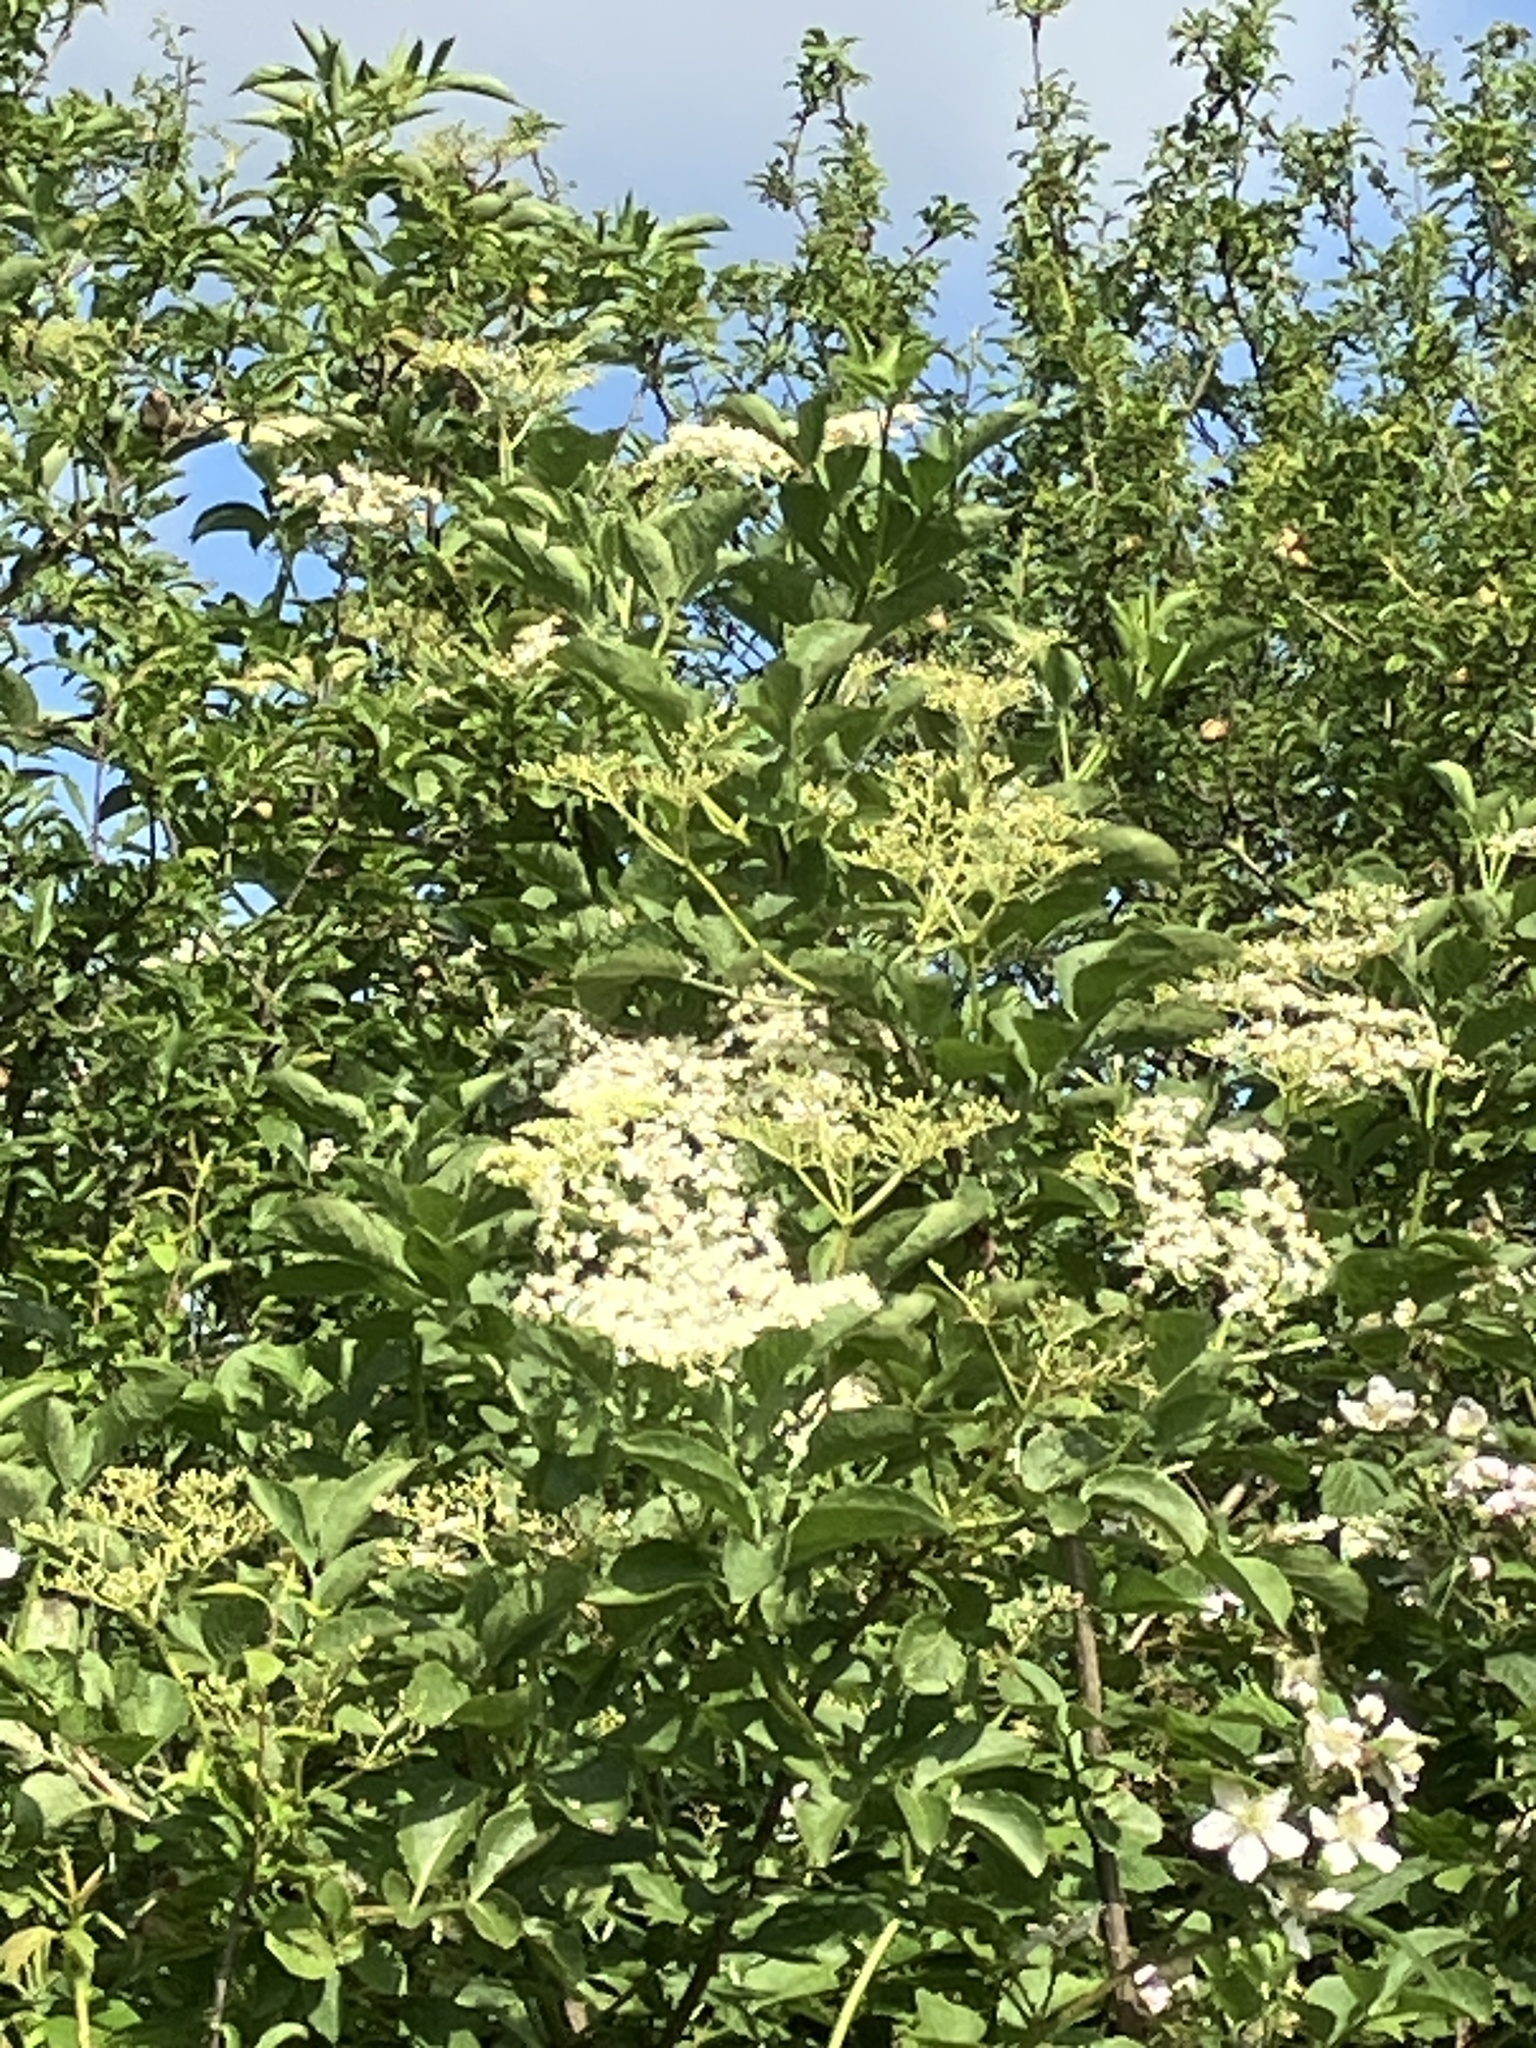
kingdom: Plantae
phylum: Tracheophyta
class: Magnoliopsida
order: Dipsacales
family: Viburnaceae
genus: Sambucus
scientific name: Sambucus nigra
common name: Elder
